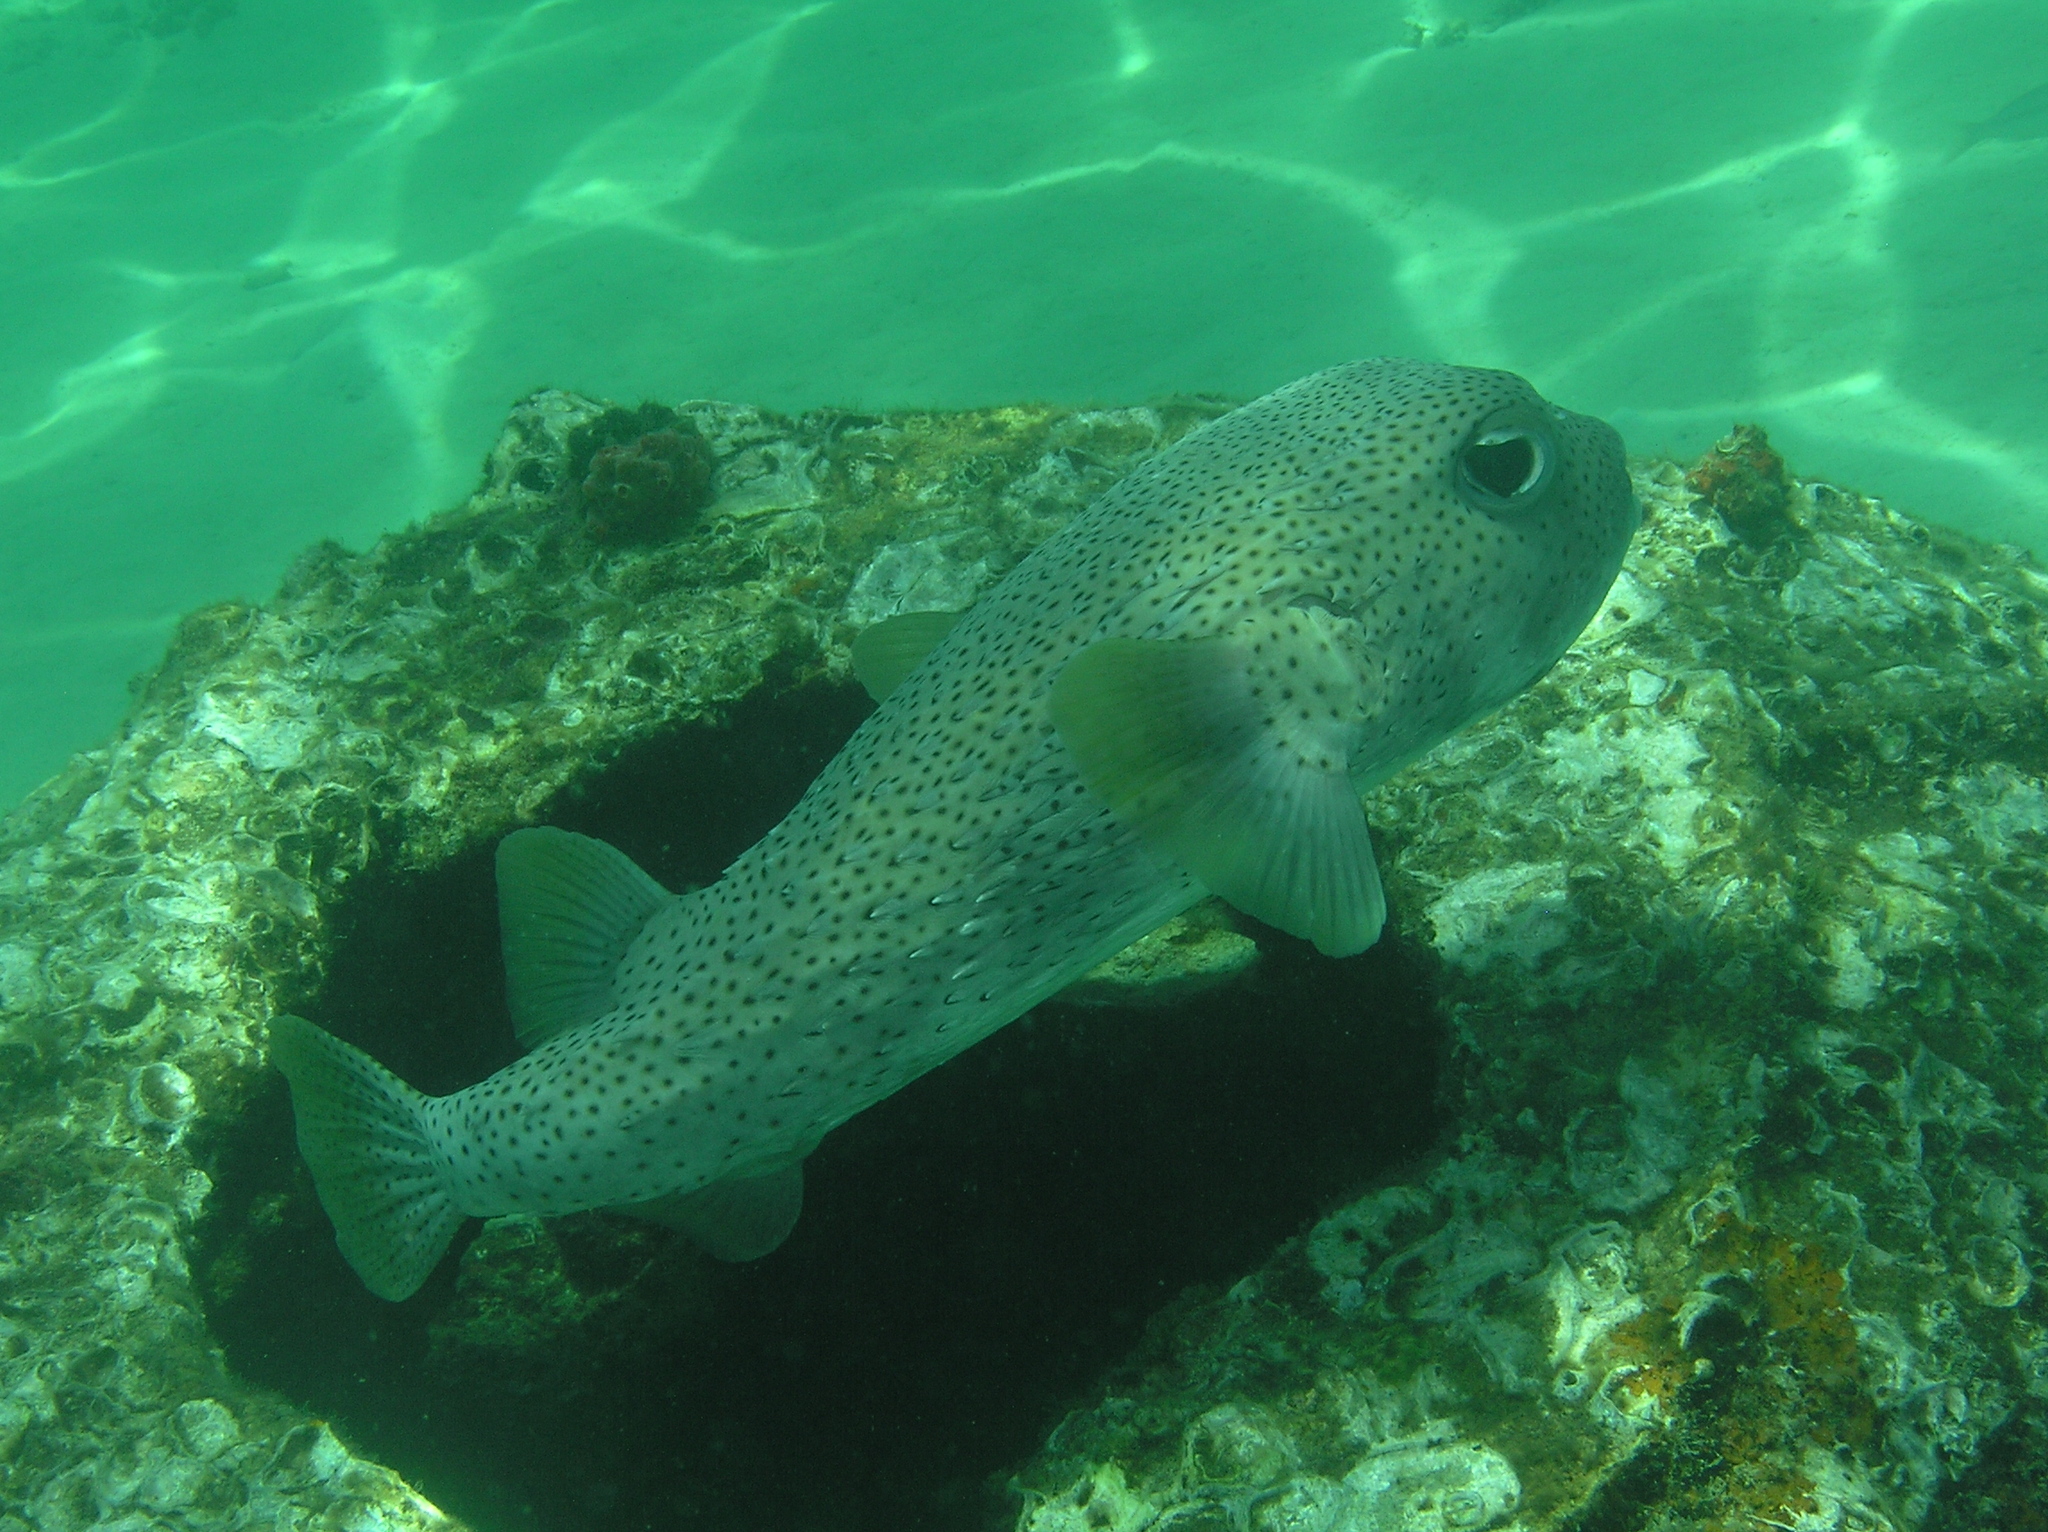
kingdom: Animalia
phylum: Chordata
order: Tetraodontiformes
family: Diodontidae
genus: Diodon
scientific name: Diodon hystrix
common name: Giant porcupinefish
